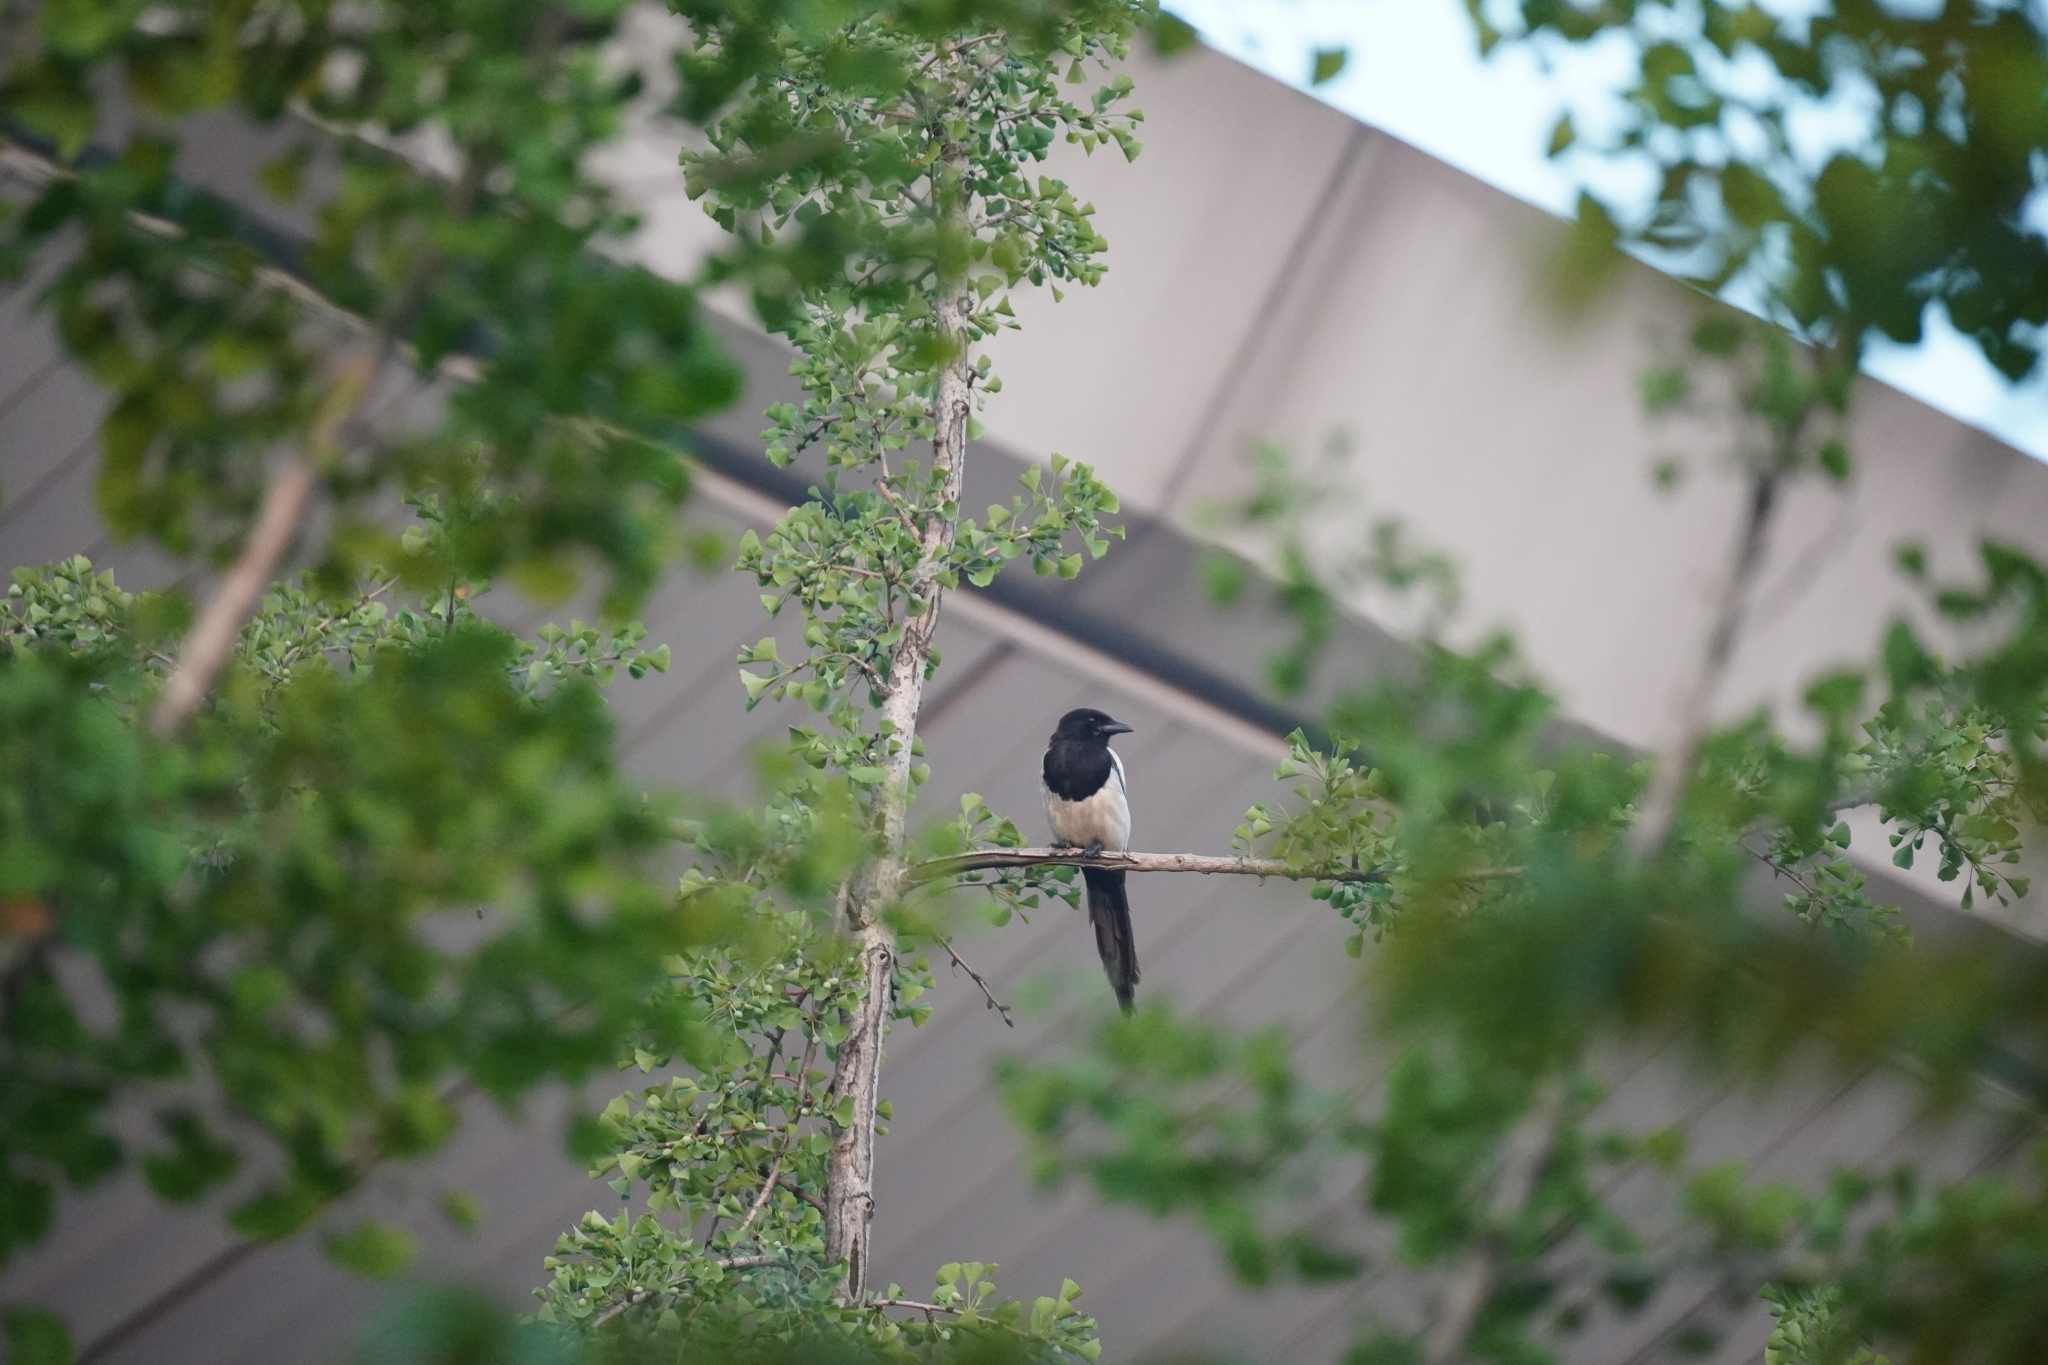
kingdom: Animalia
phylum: Chordata
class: Aves
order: Passeriformes
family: Corvidae
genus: Pica
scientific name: Pica serica
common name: Oriental magpie
